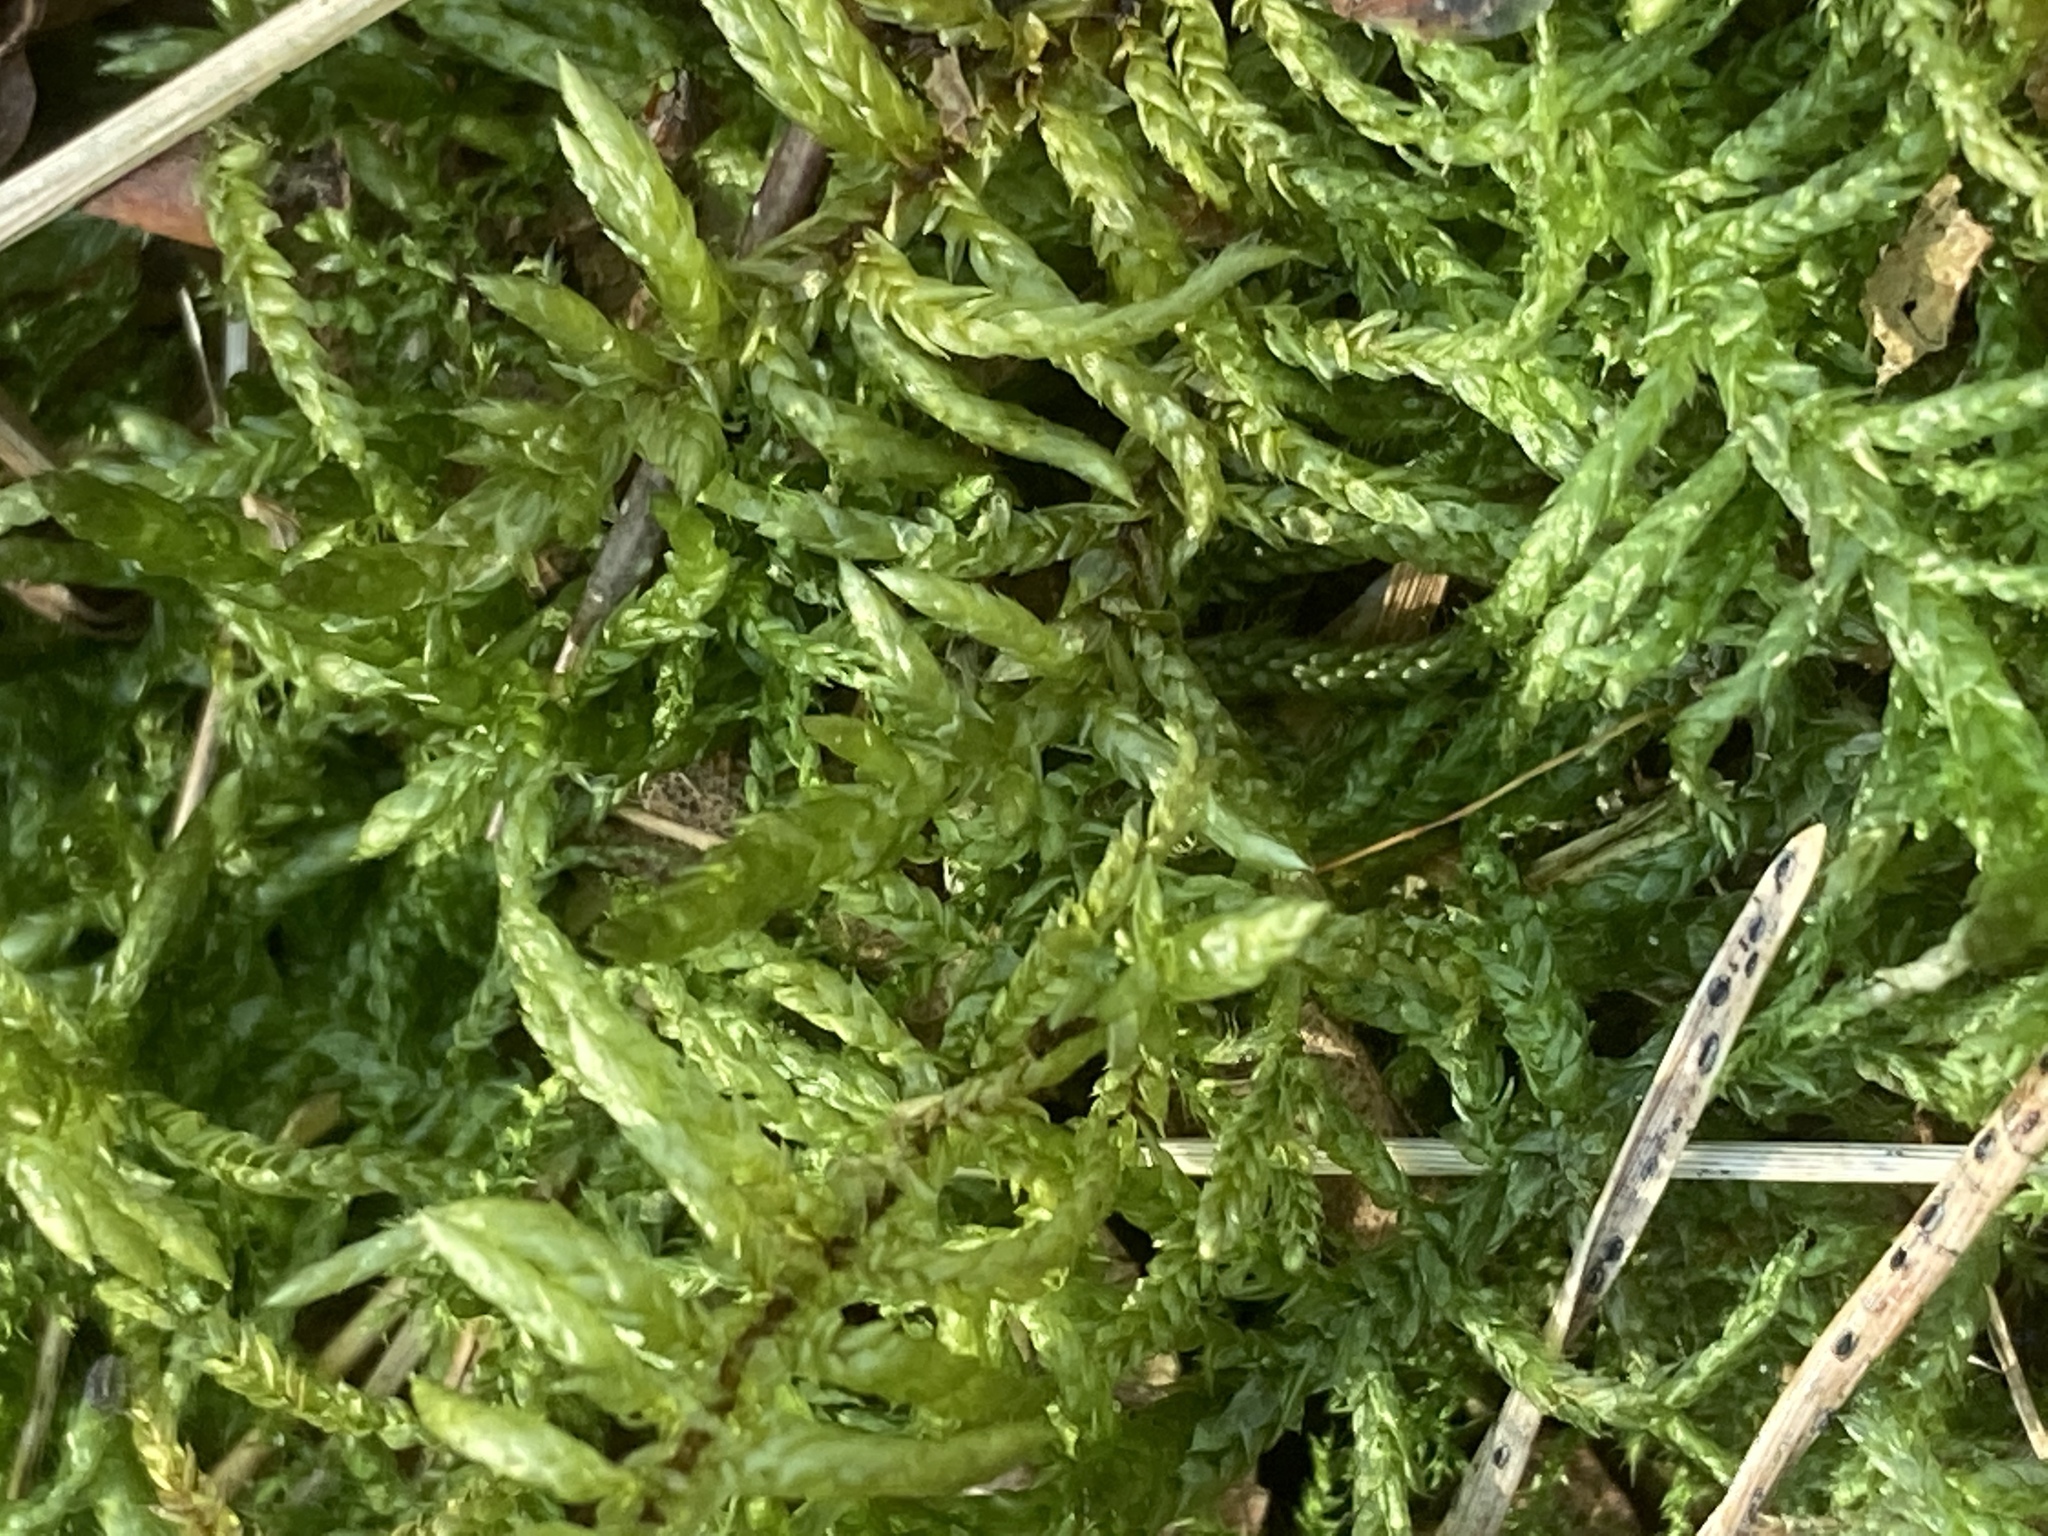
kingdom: Plantae
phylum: Bryophyta
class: Bryopsida
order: Hypnales
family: Brachytheciaceae
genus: Pseudoscleropodium
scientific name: Pseudoscleropodium purum
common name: Neat feather-moss
